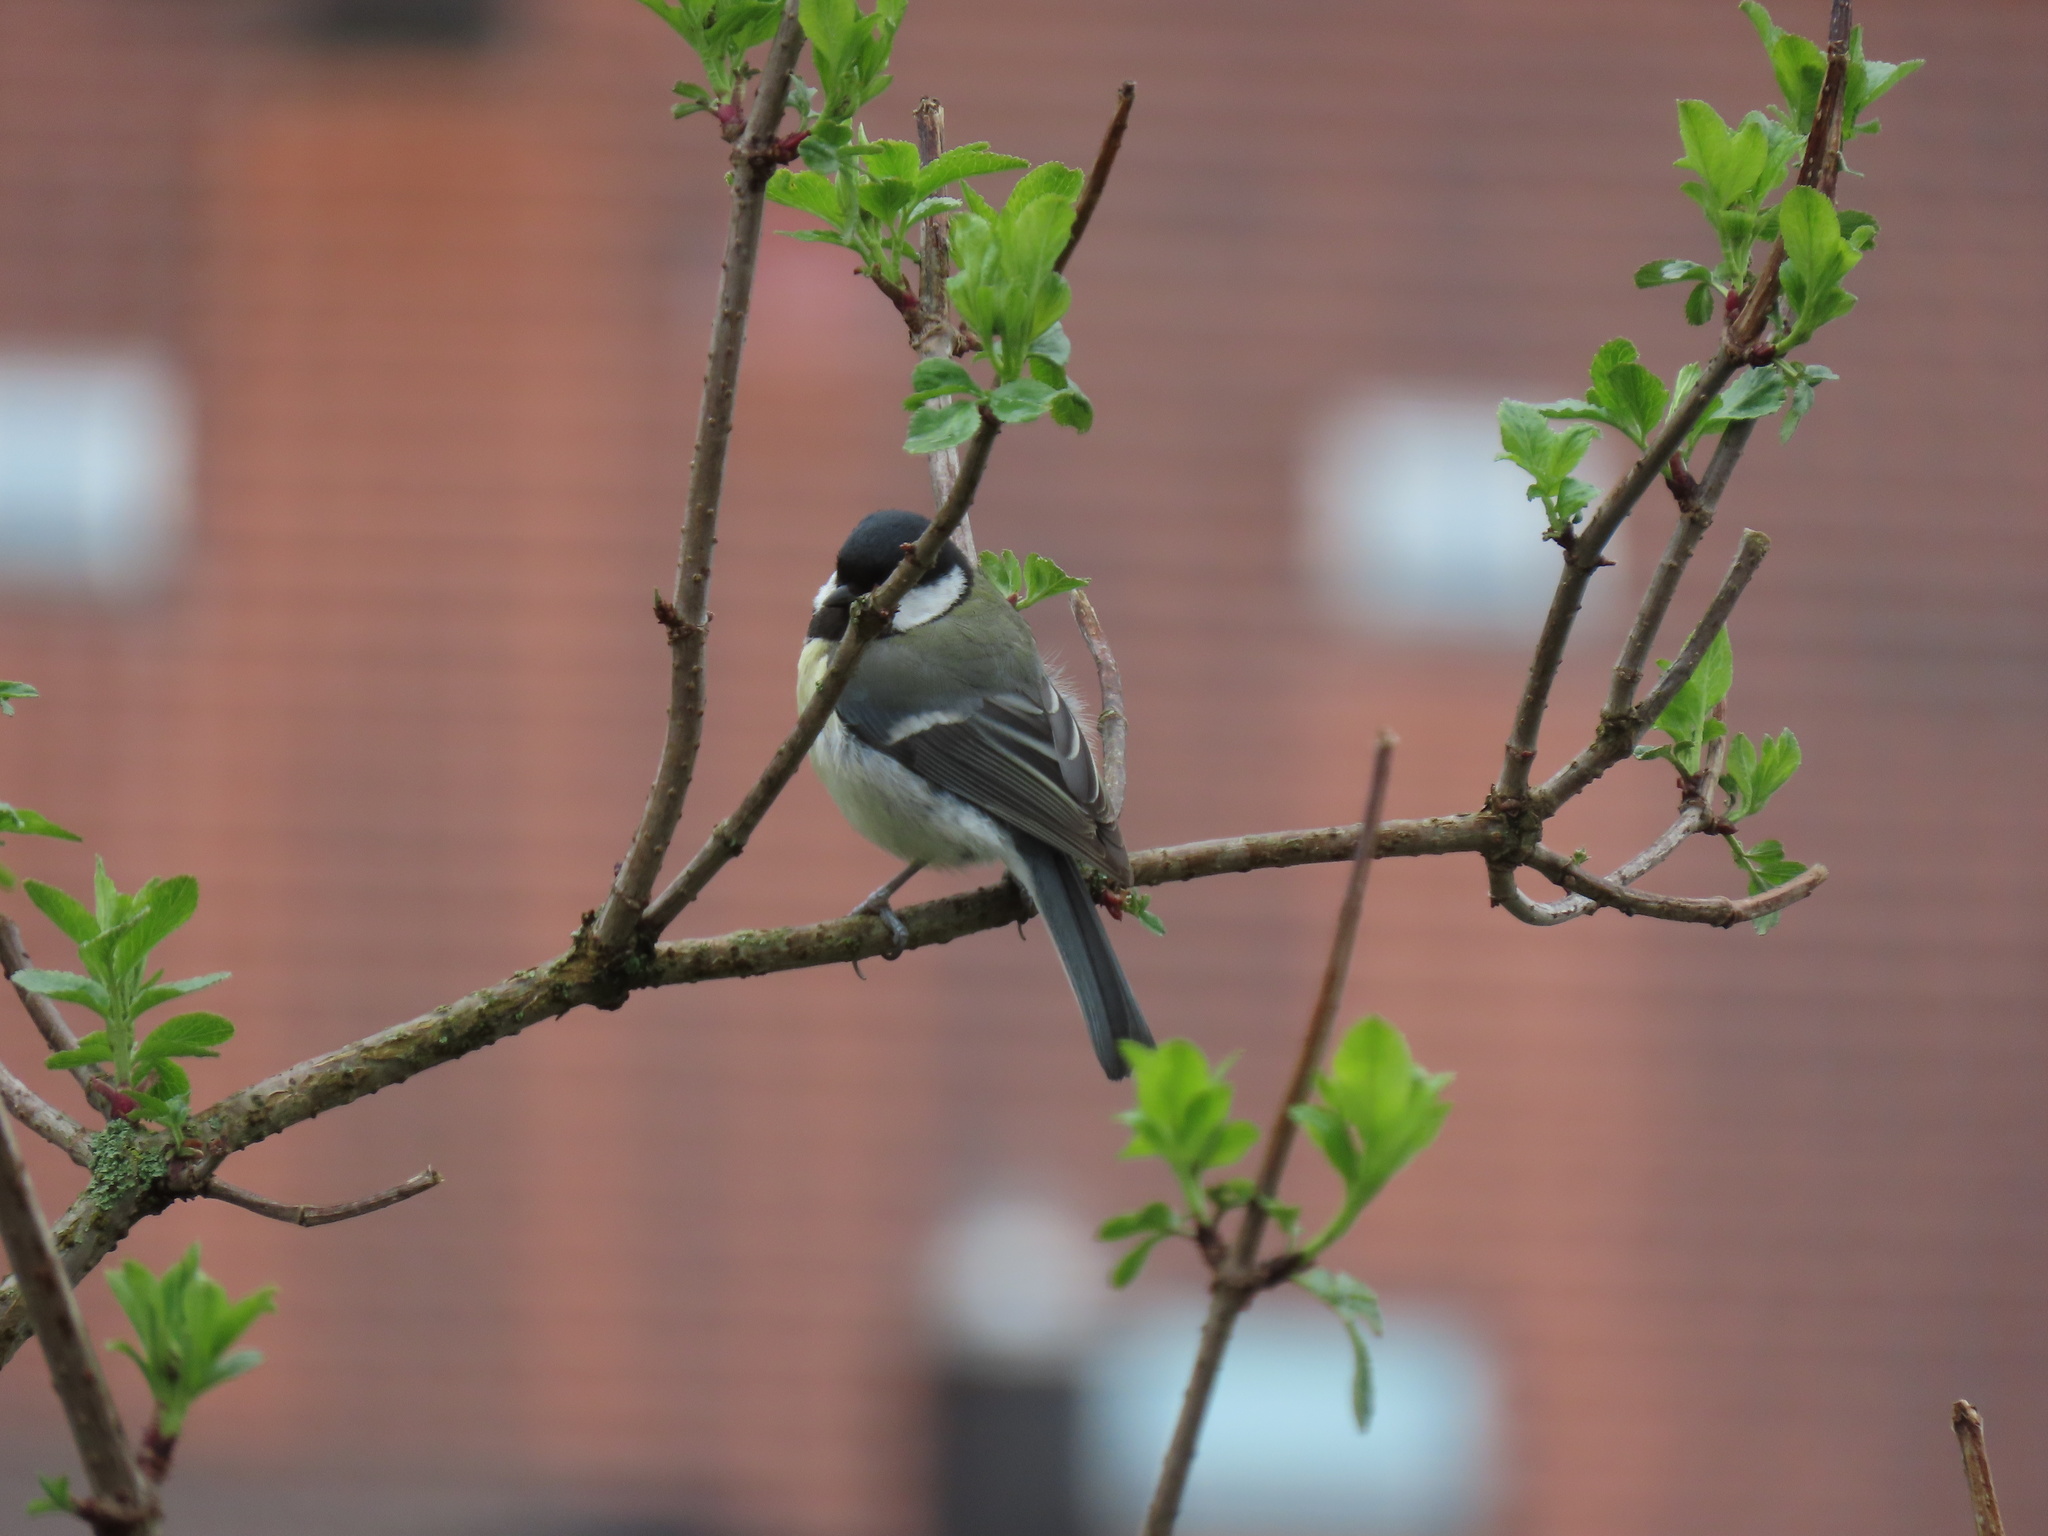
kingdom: Animalia
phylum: Chordata
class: Aves
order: Passeriformes
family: Paridae
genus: Parus
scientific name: Parus major
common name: Great tit
